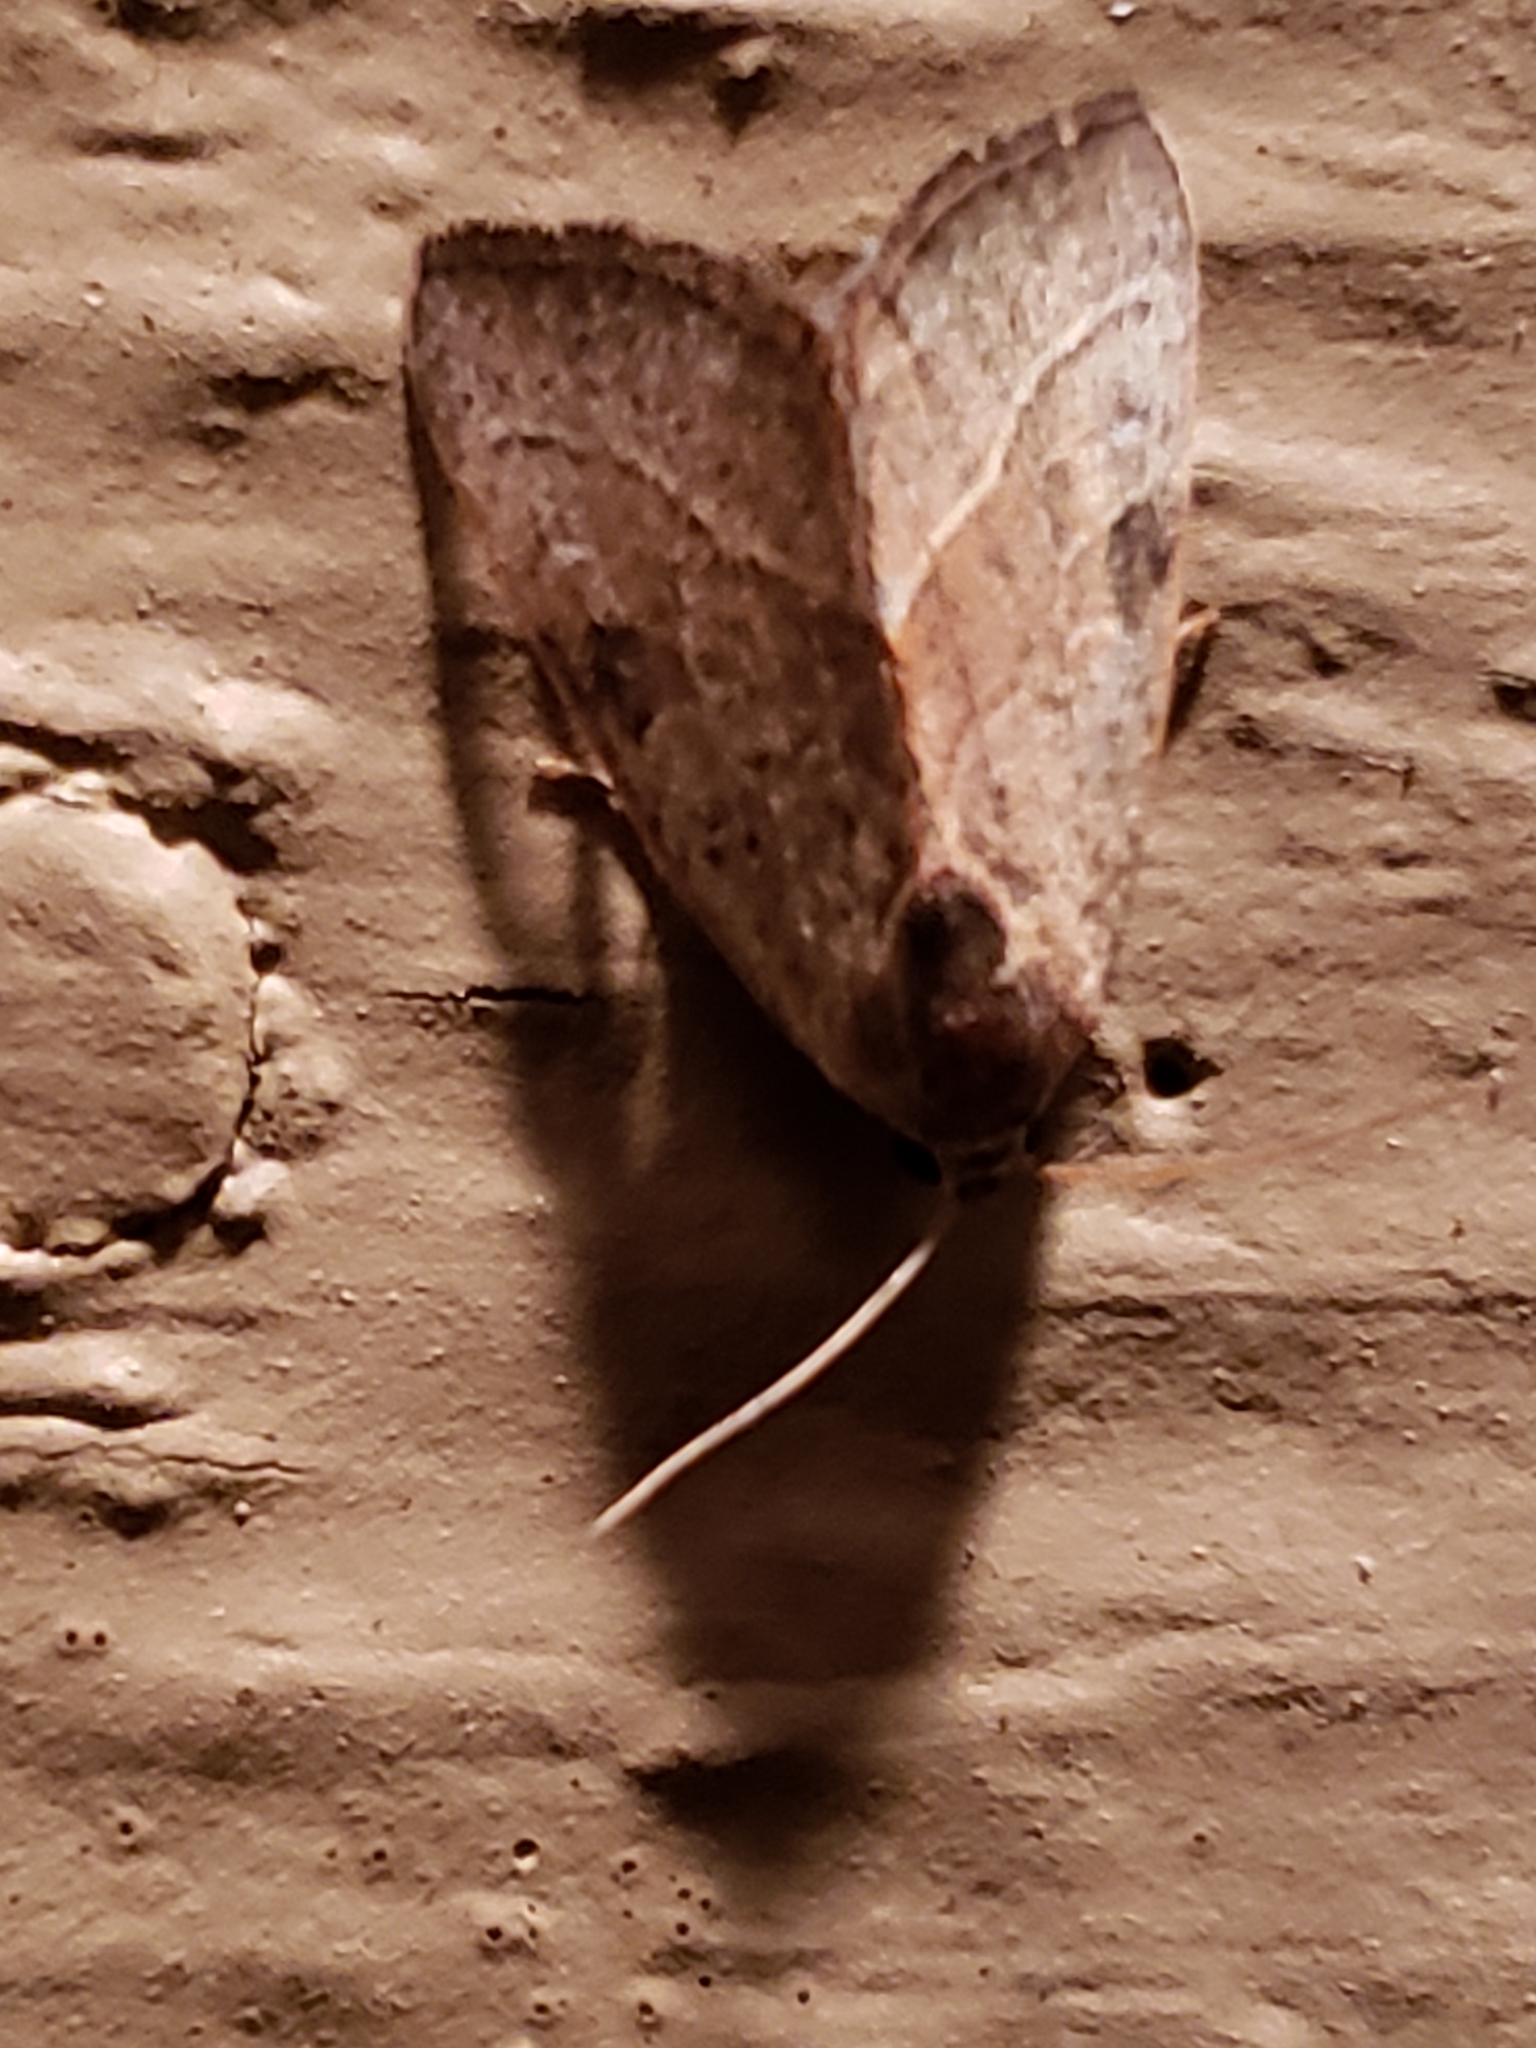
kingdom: Animalia
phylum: Arthropoda
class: Insecta
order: Lepidoptera
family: Noctuidae
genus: Galgula
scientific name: Galgula partita
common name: Wedgeling
